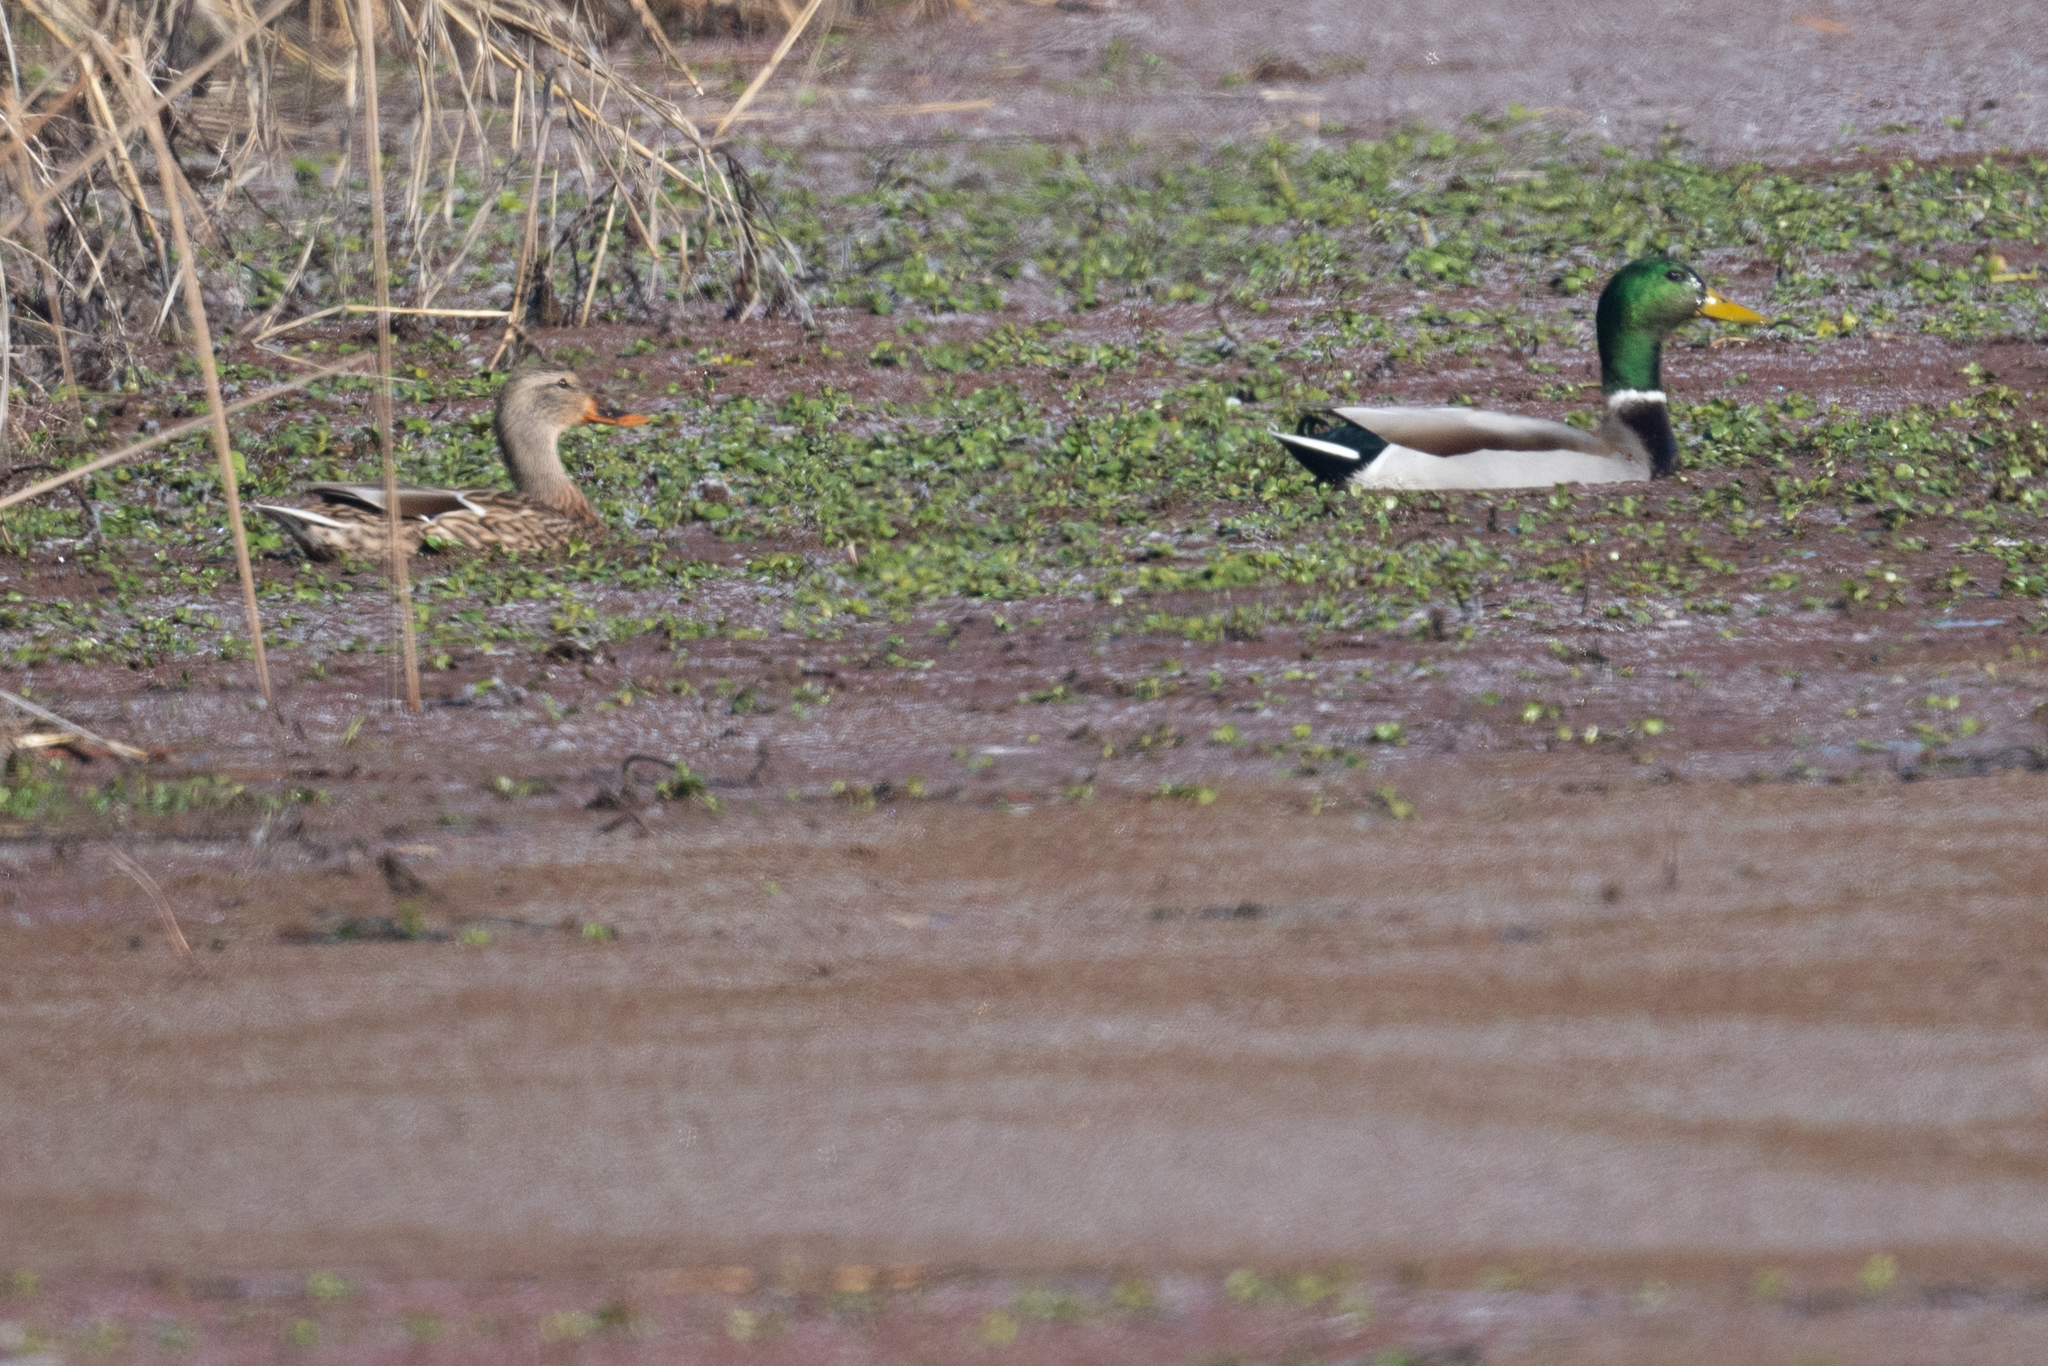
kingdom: Animalia
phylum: Chordata
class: Aves
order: Anseriformes
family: Anatidae
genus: Anas
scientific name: Anas platyrhynchos
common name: Mallard
